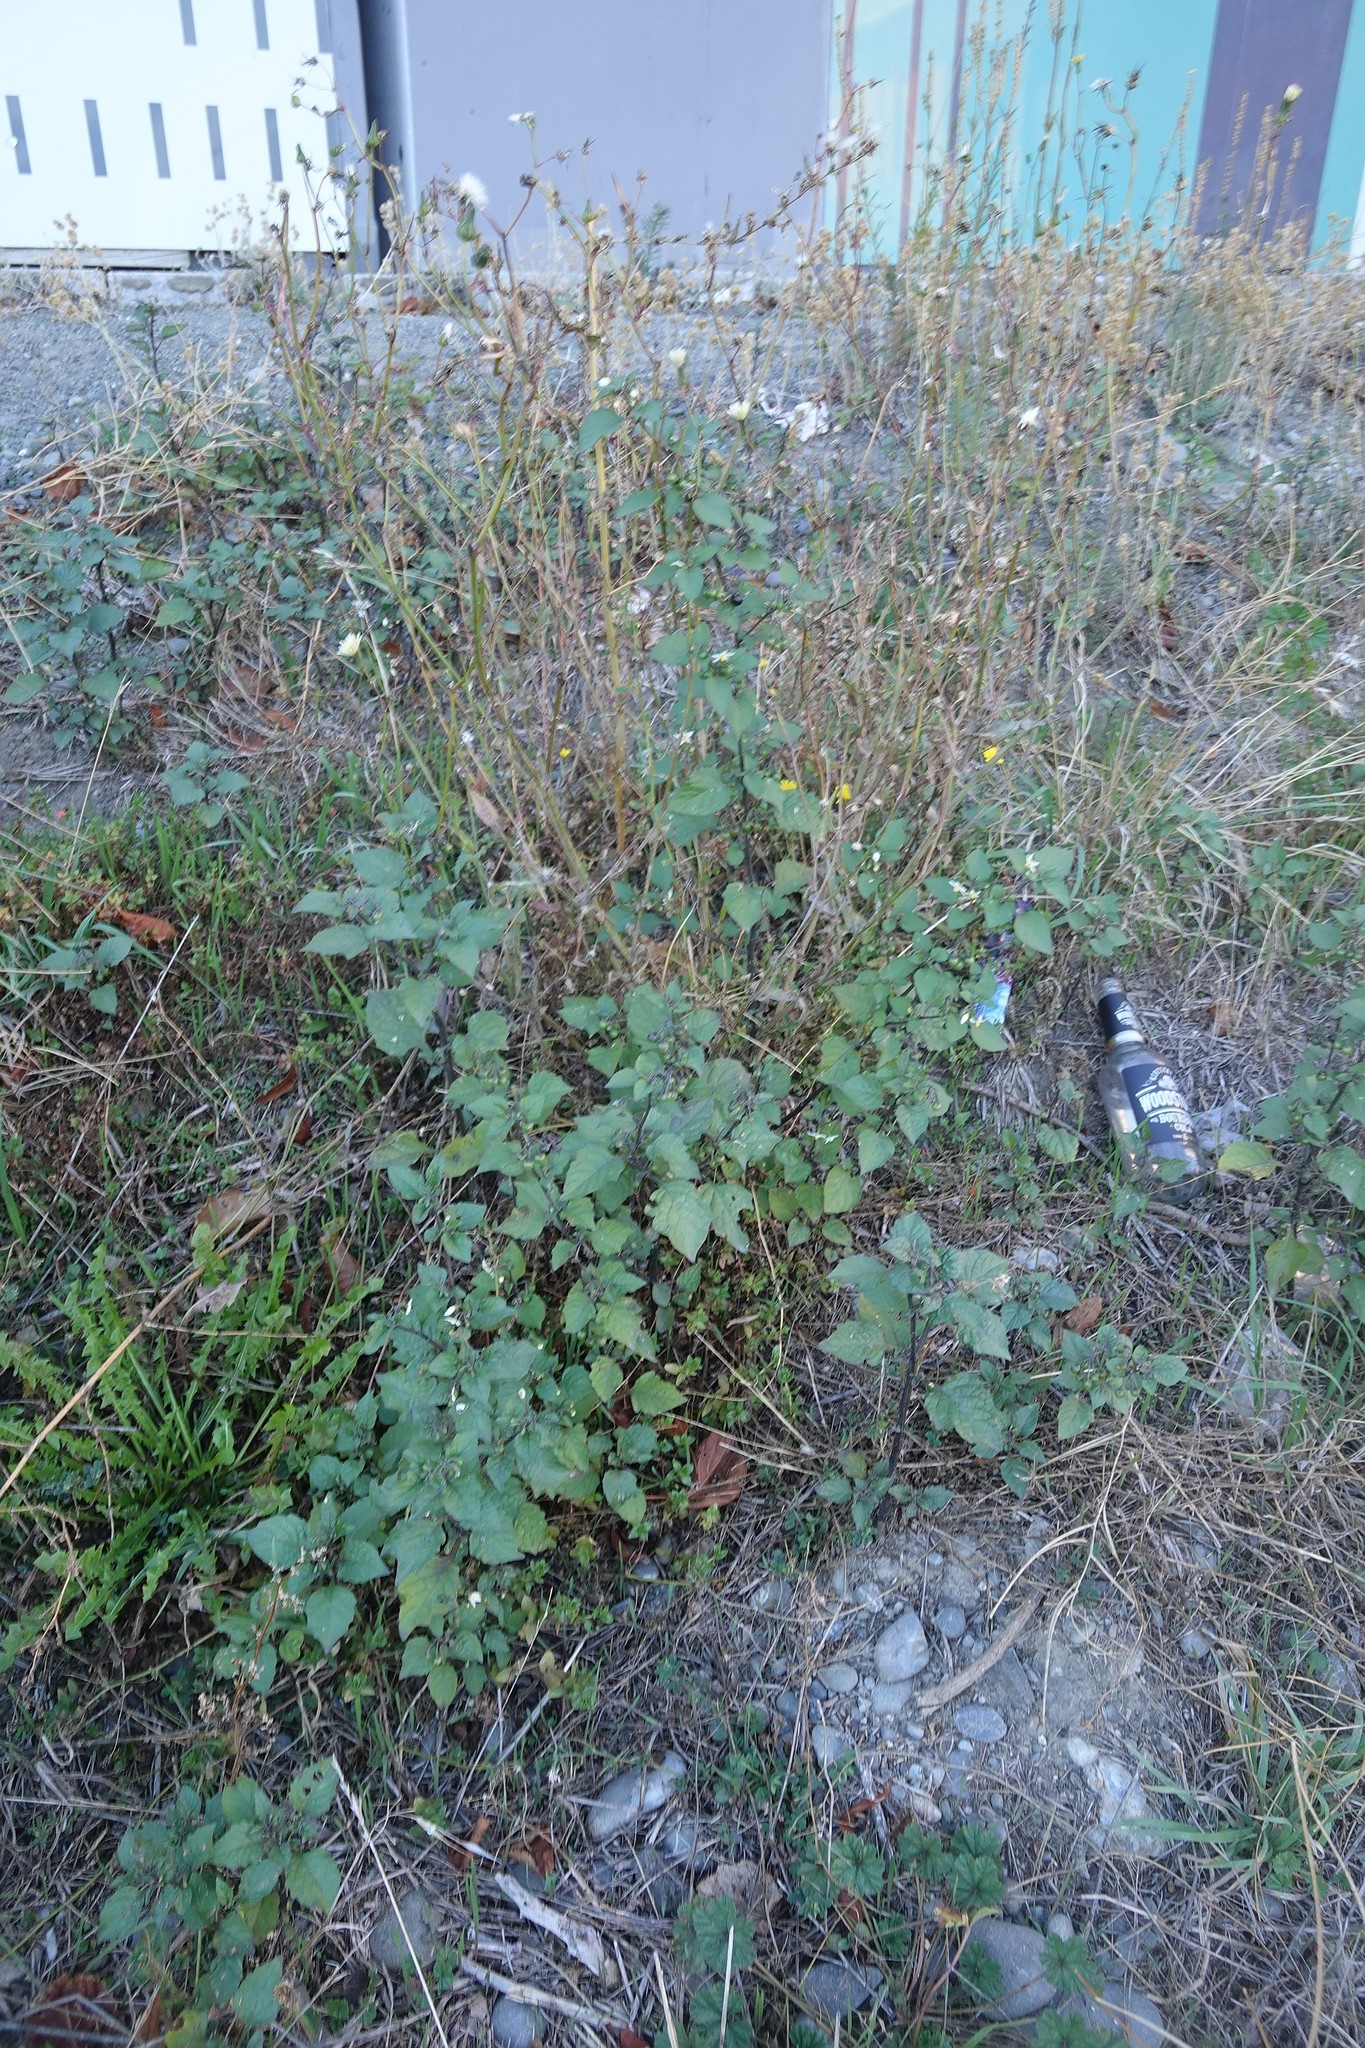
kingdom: Plantae
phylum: Tracheophyta
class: Magnoliopsida
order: Solanales
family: Solanaceae
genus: Solanum
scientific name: Solanum nigrum
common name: Black nightshade
